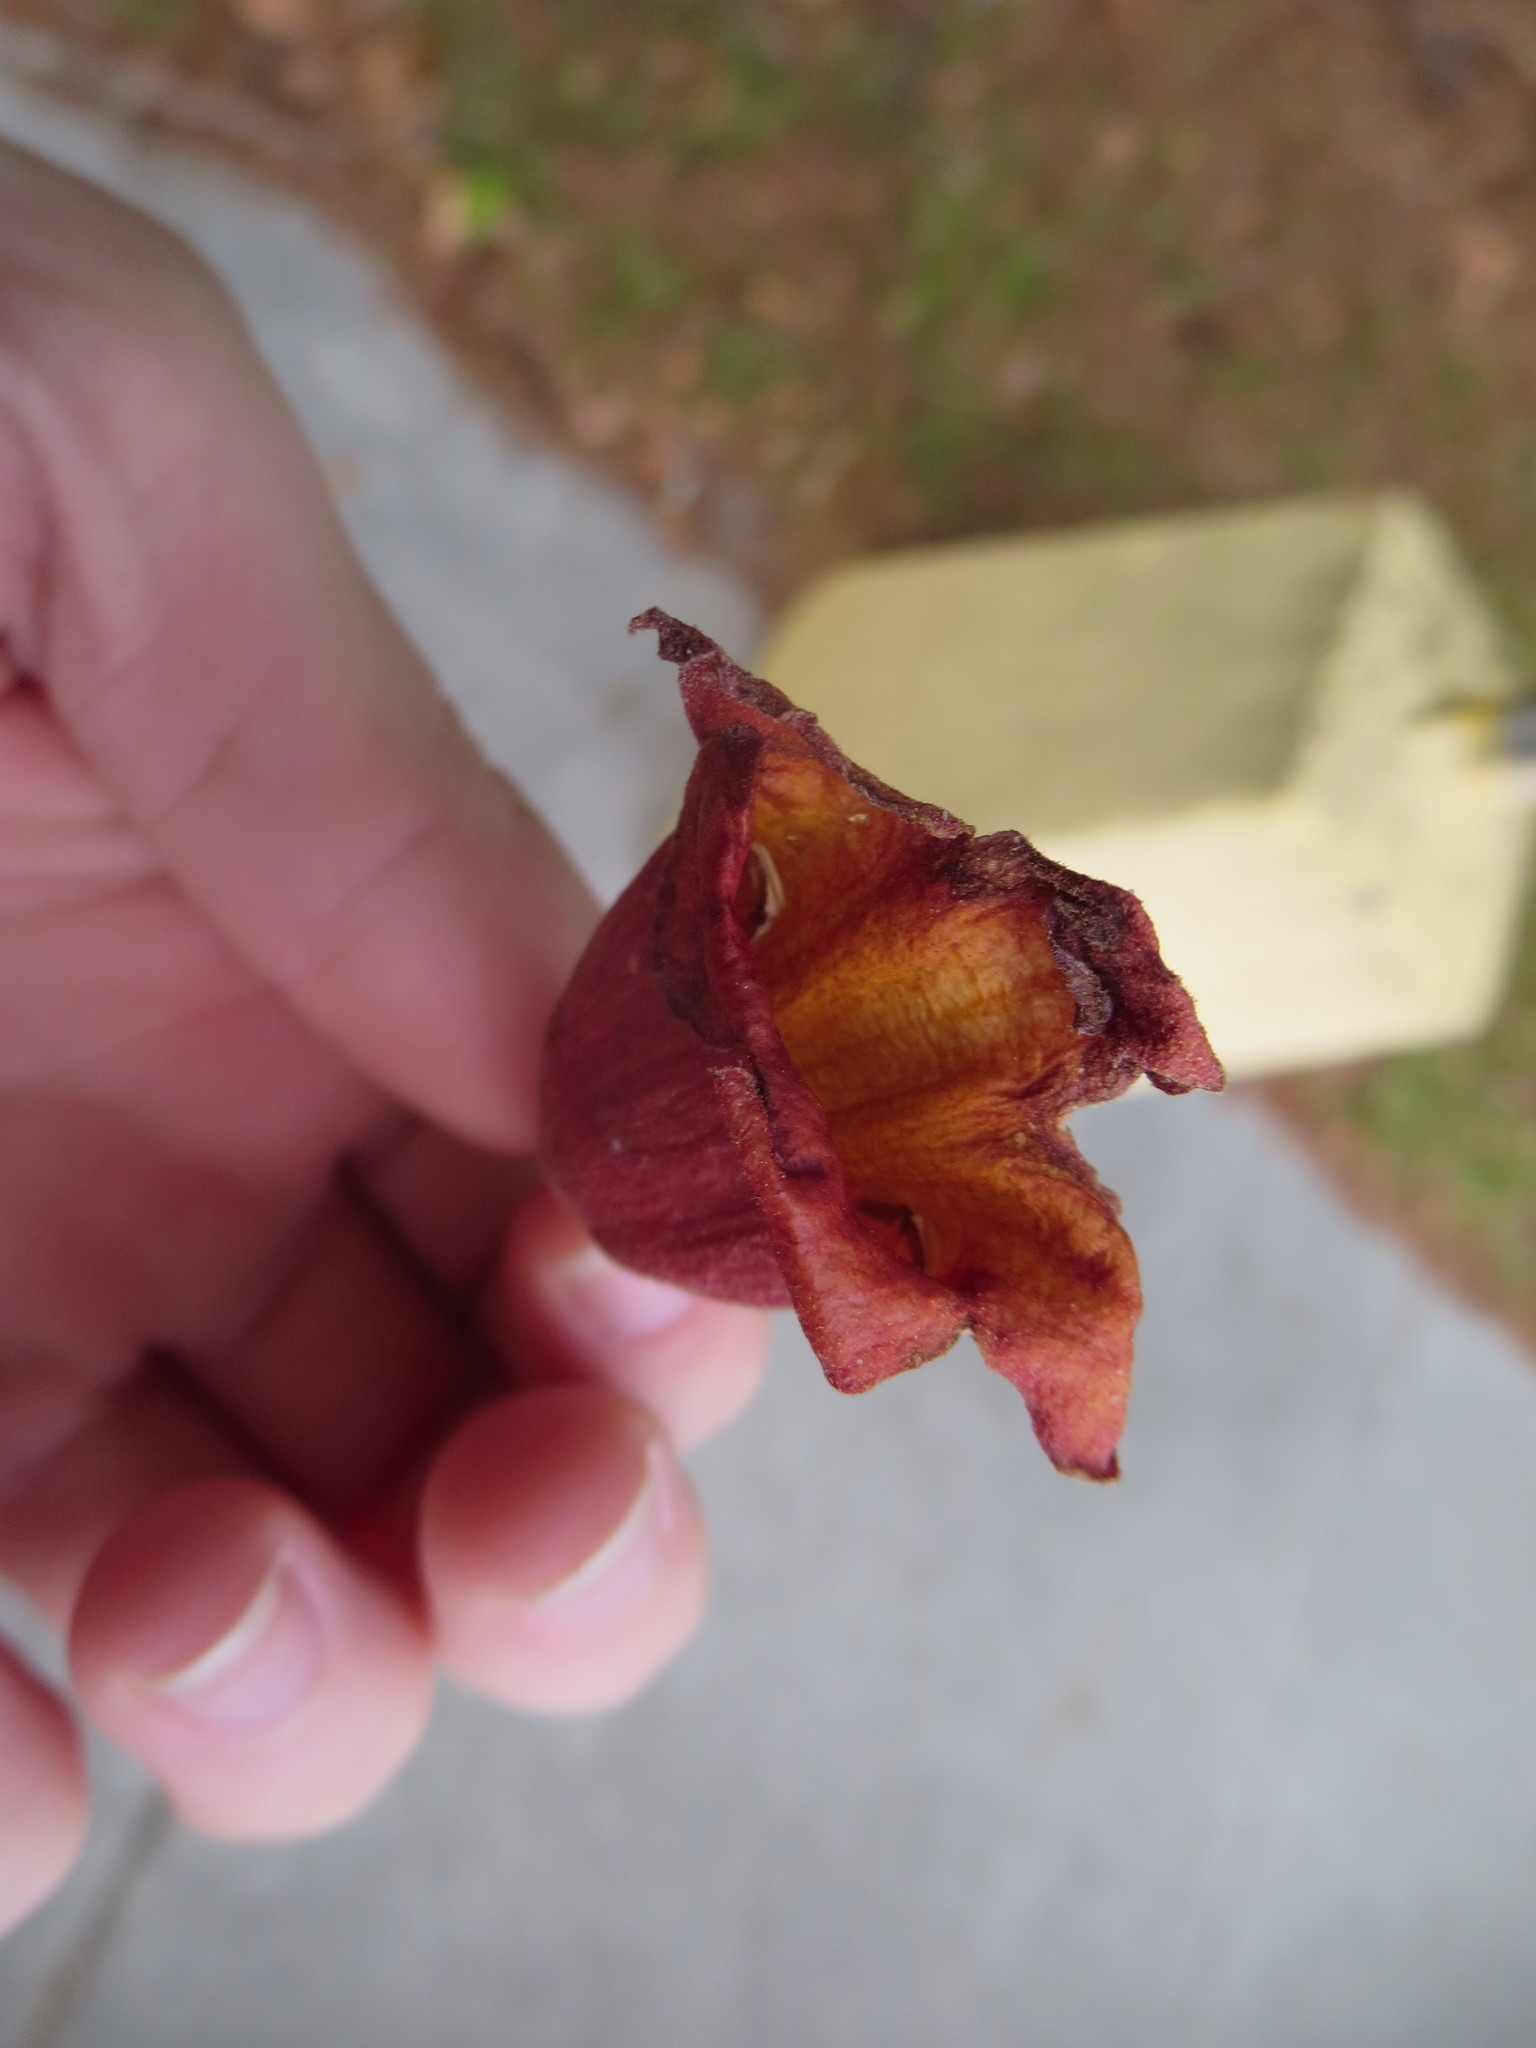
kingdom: Plantae
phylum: Tracheophyta
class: Magnoliopsida
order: Lamiales
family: Bignoniaceae
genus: Bignonia
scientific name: Bignonia capreolata
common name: Crossvine
